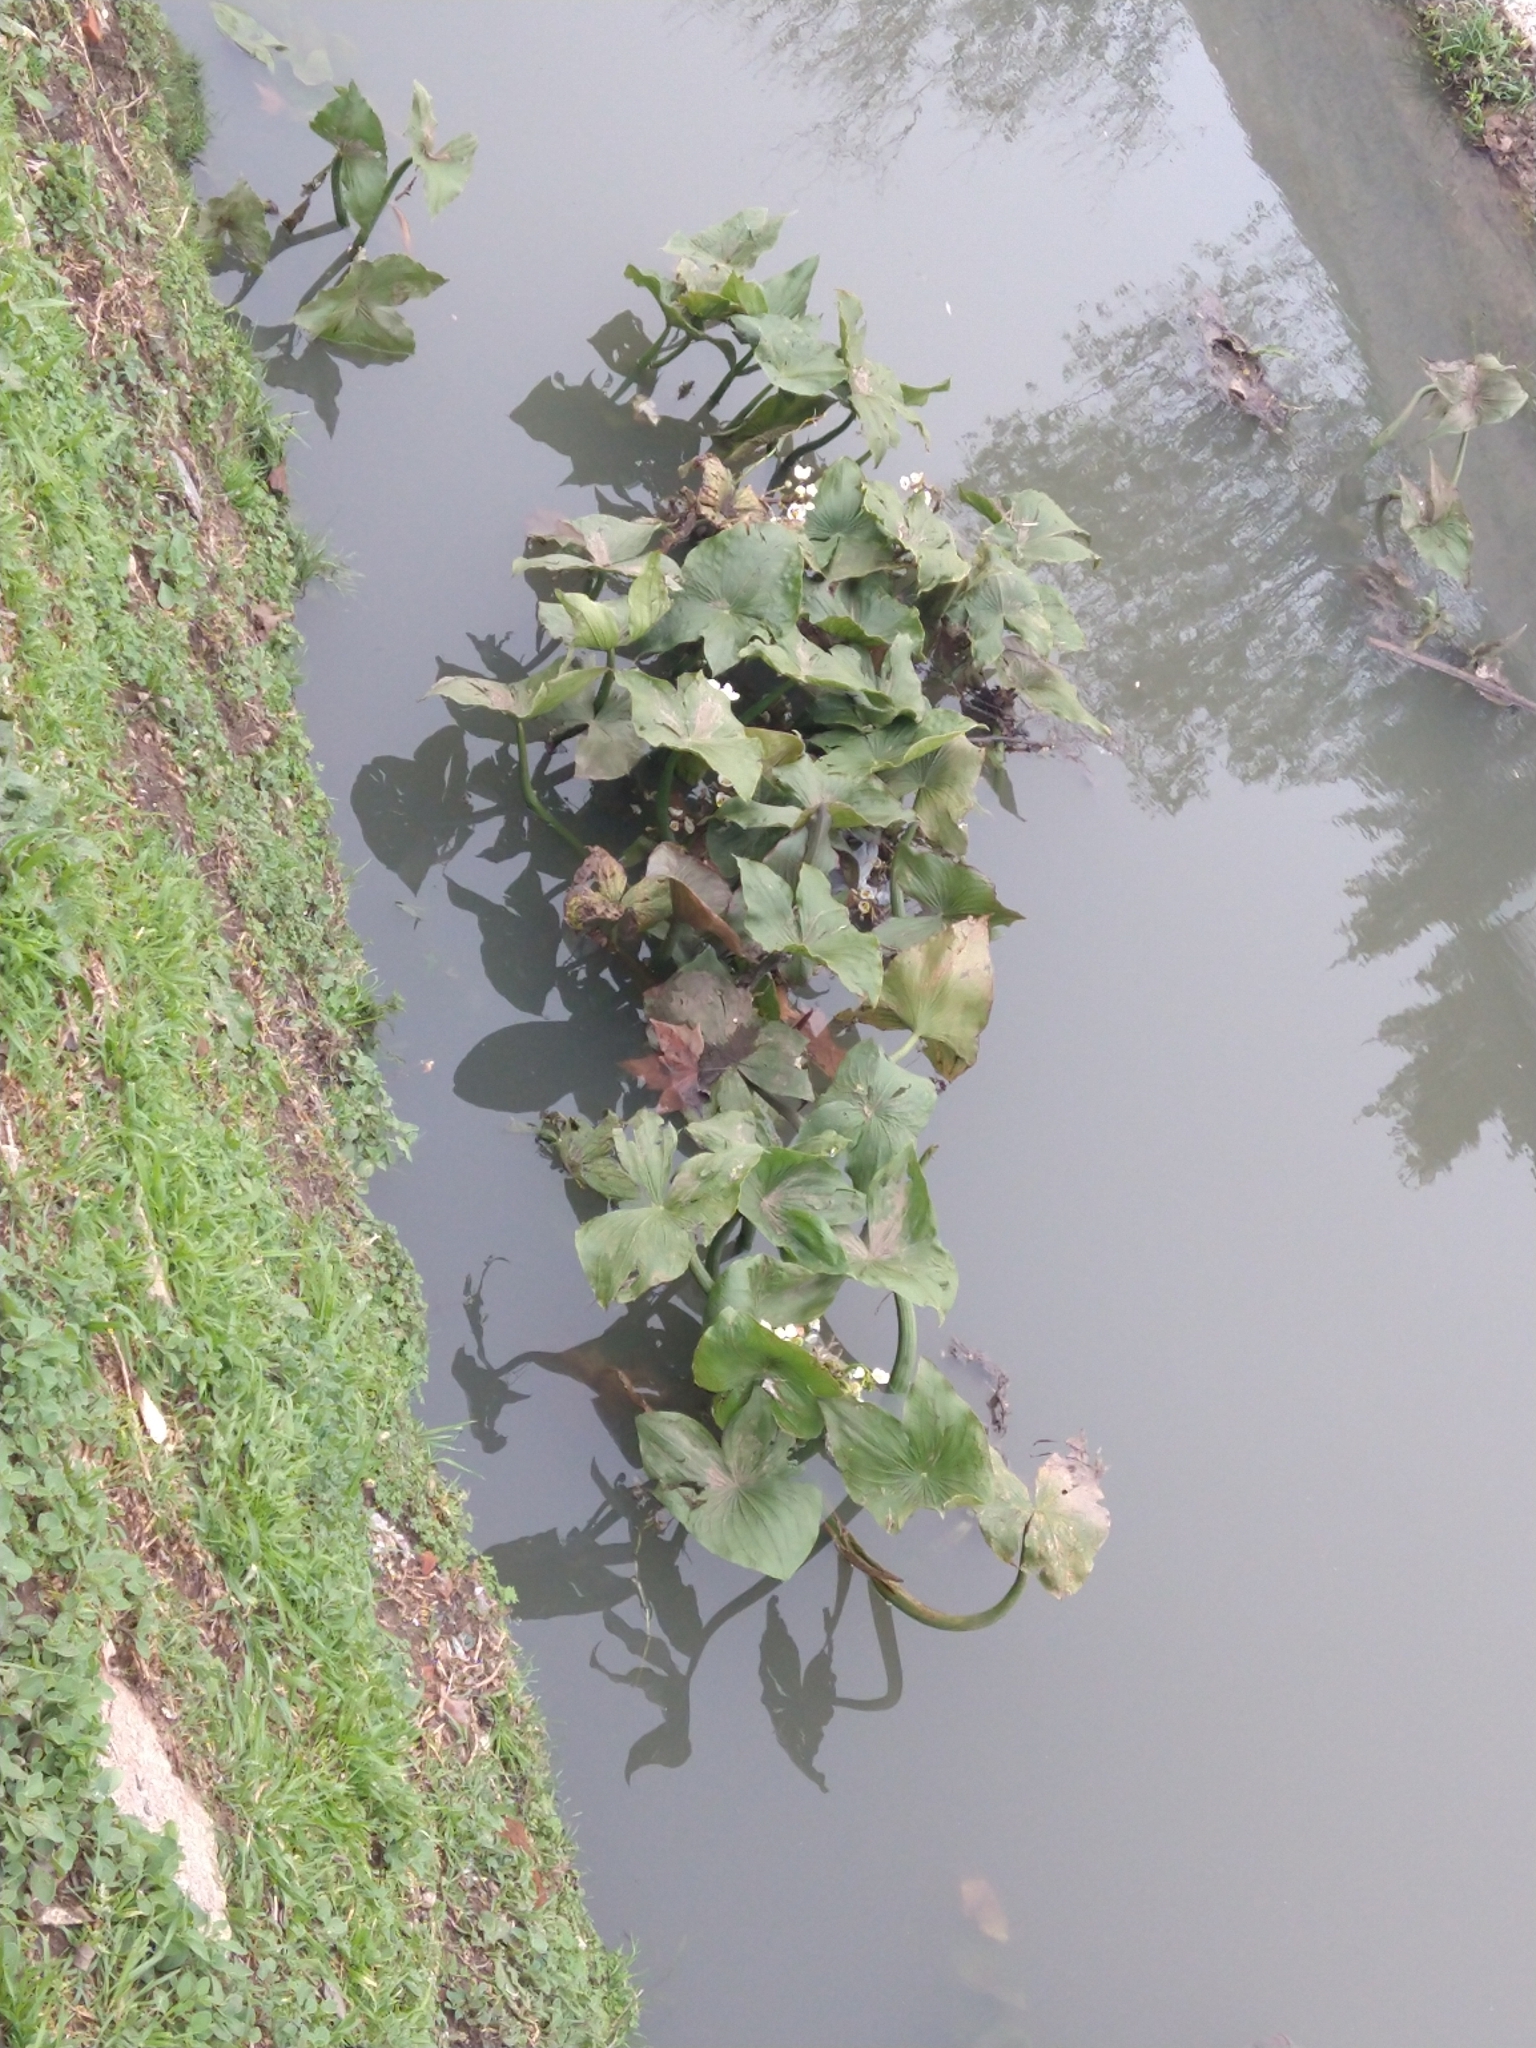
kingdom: Plantae
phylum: Tracheophyta
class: Liliopsida
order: Alismatales
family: Alismataceae
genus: Sagittaria
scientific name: Sagittaria montevidensis
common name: Giant arrowhead
